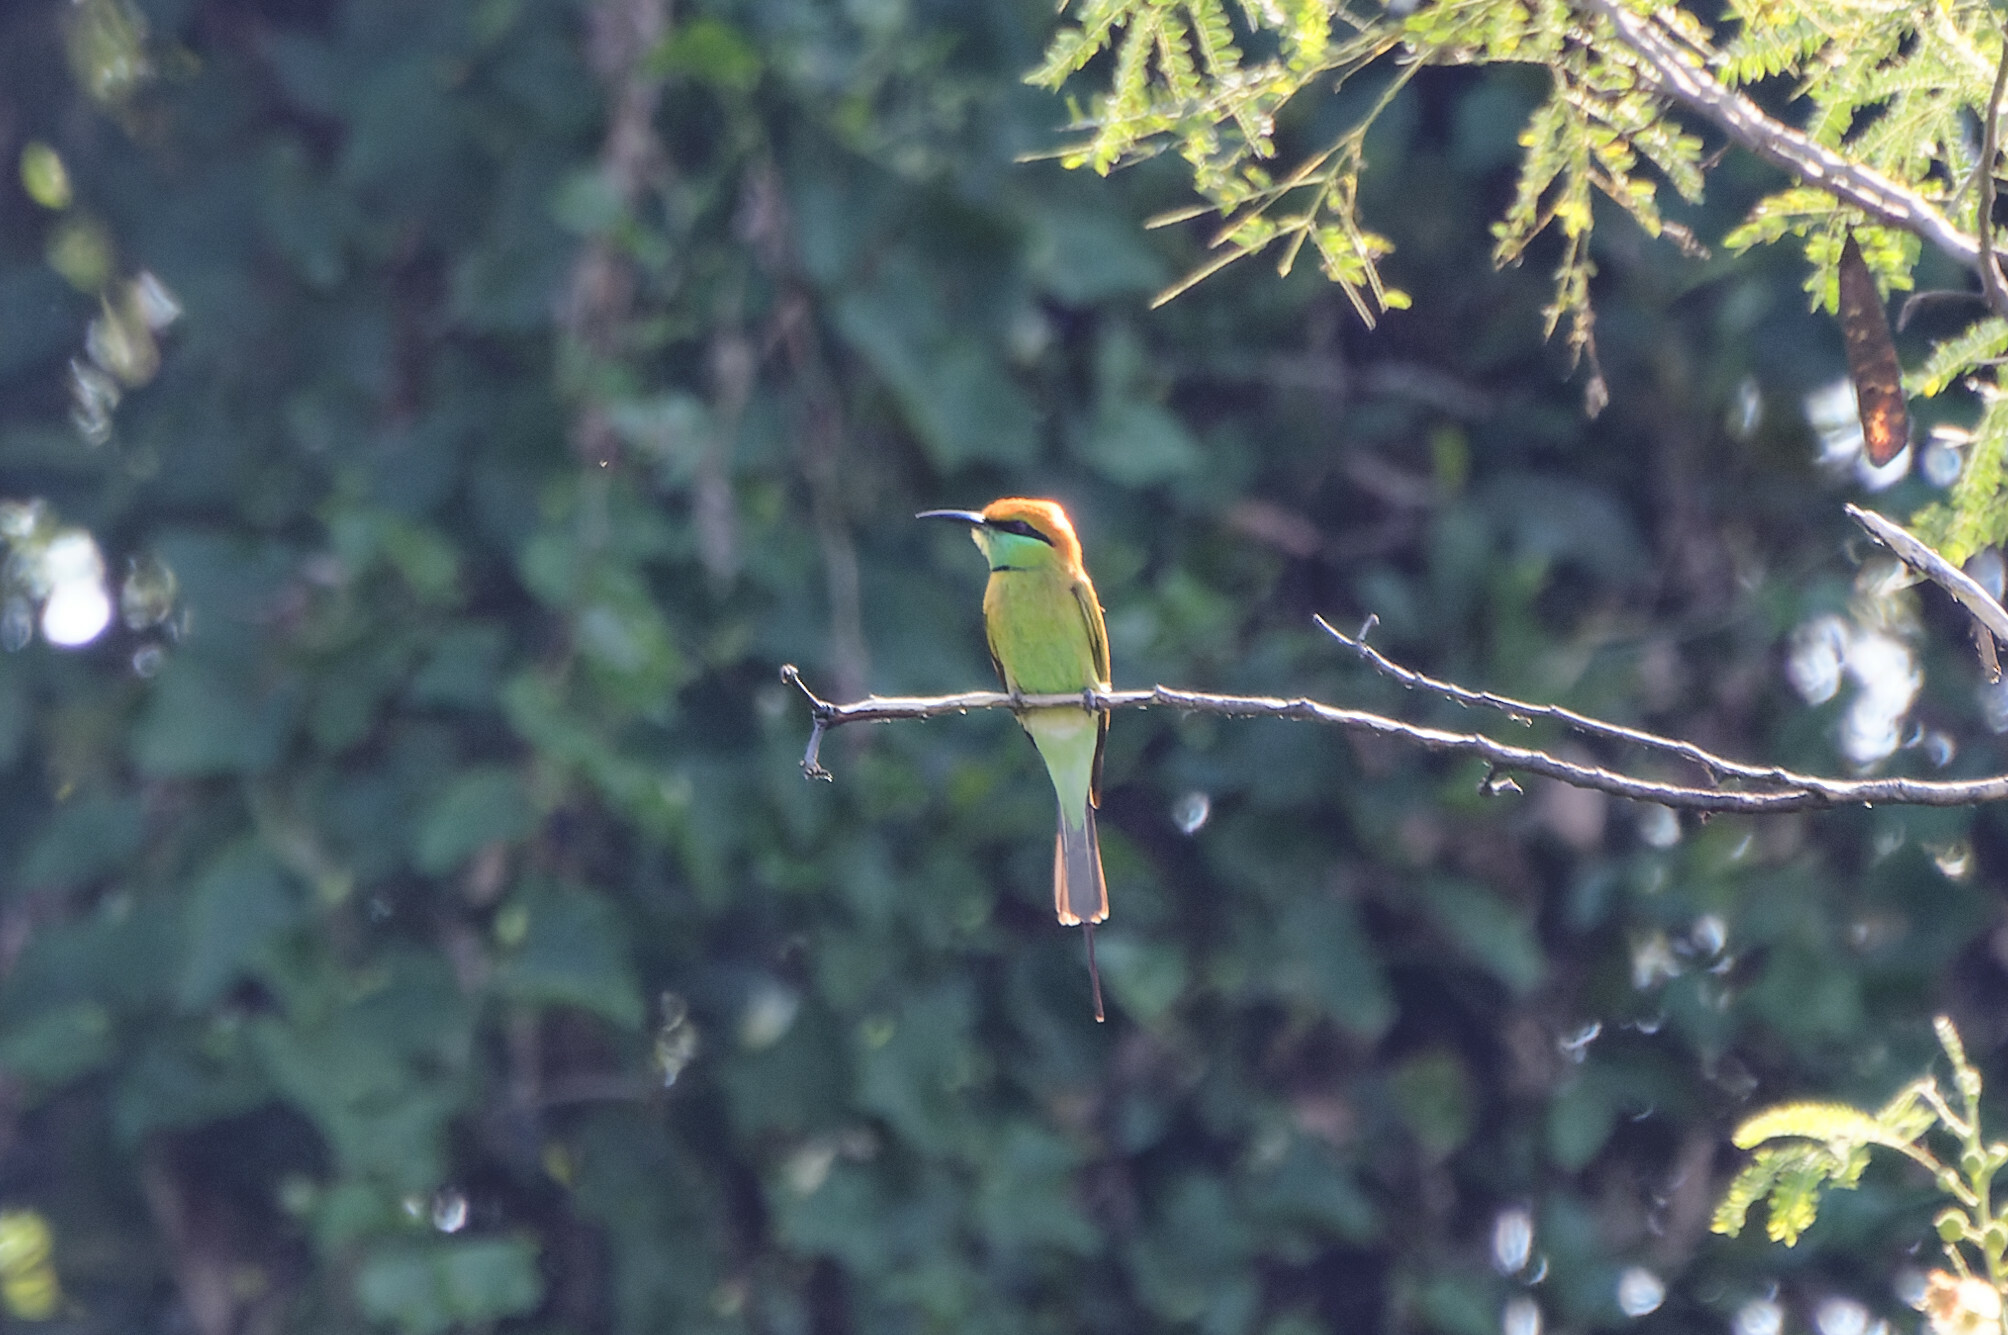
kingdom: Animalia
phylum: Chordata
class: Aves
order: Coraciiformes
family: Meropidae
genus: Merops
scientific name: Merops orientalis
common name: Green bee-eater
